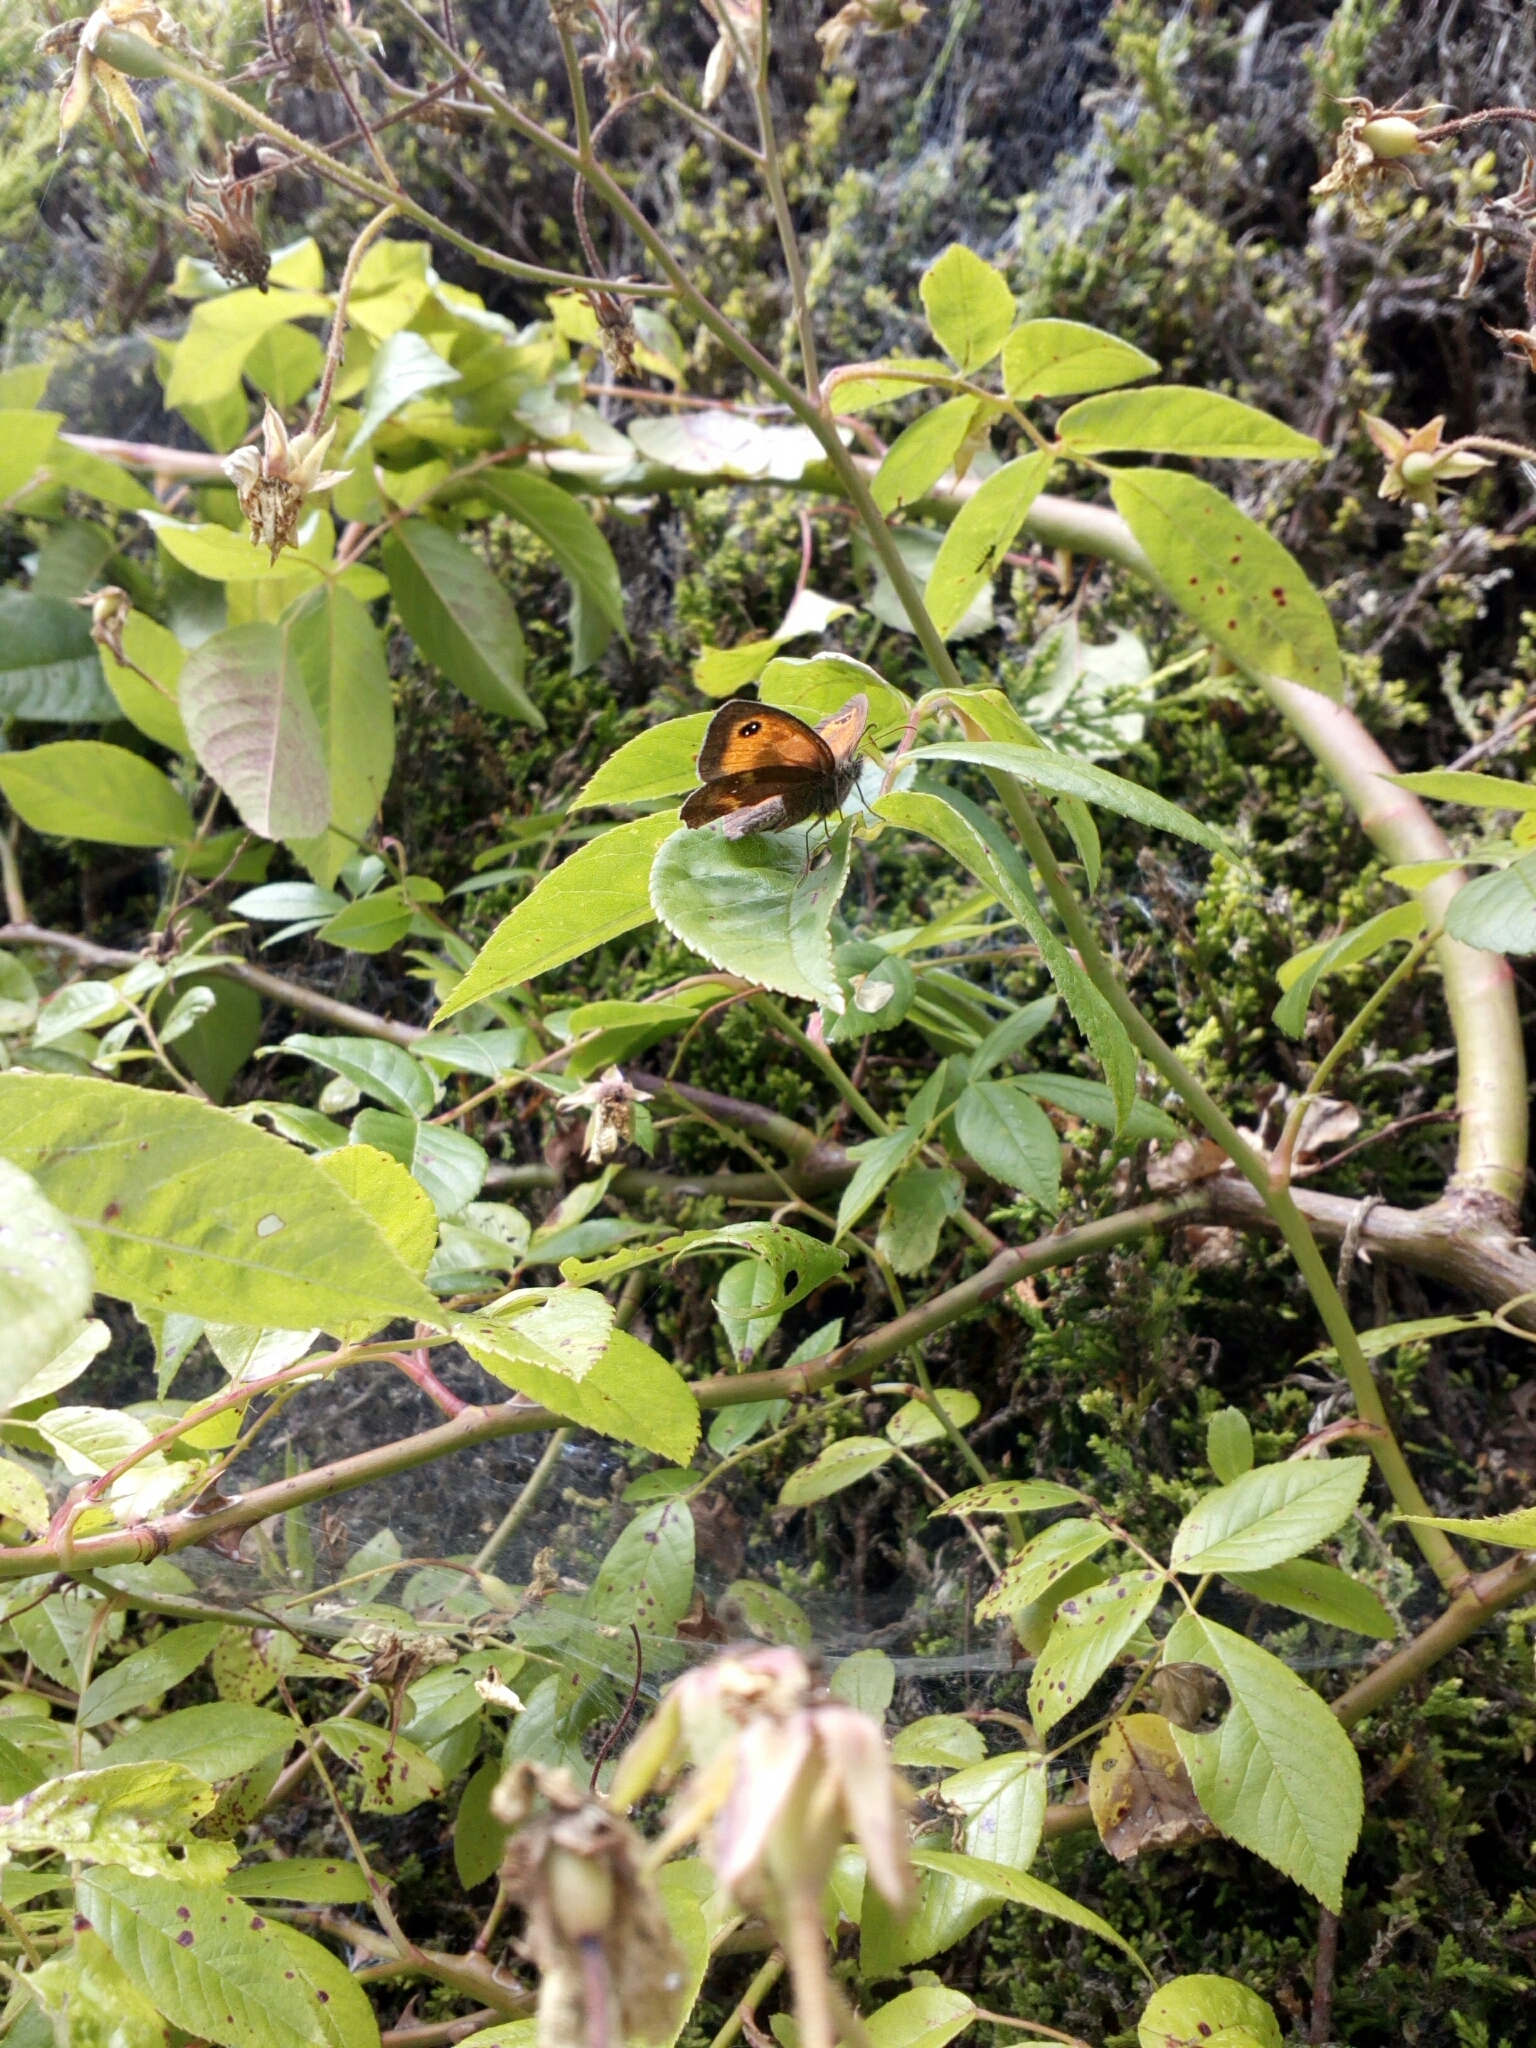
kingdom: Animalia
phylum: Arthropoda
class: Insecta
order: Lepidoptera
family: Nymphalidae
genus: Pyronia
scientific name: Pyronia tithonus
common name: Gatekeeper
